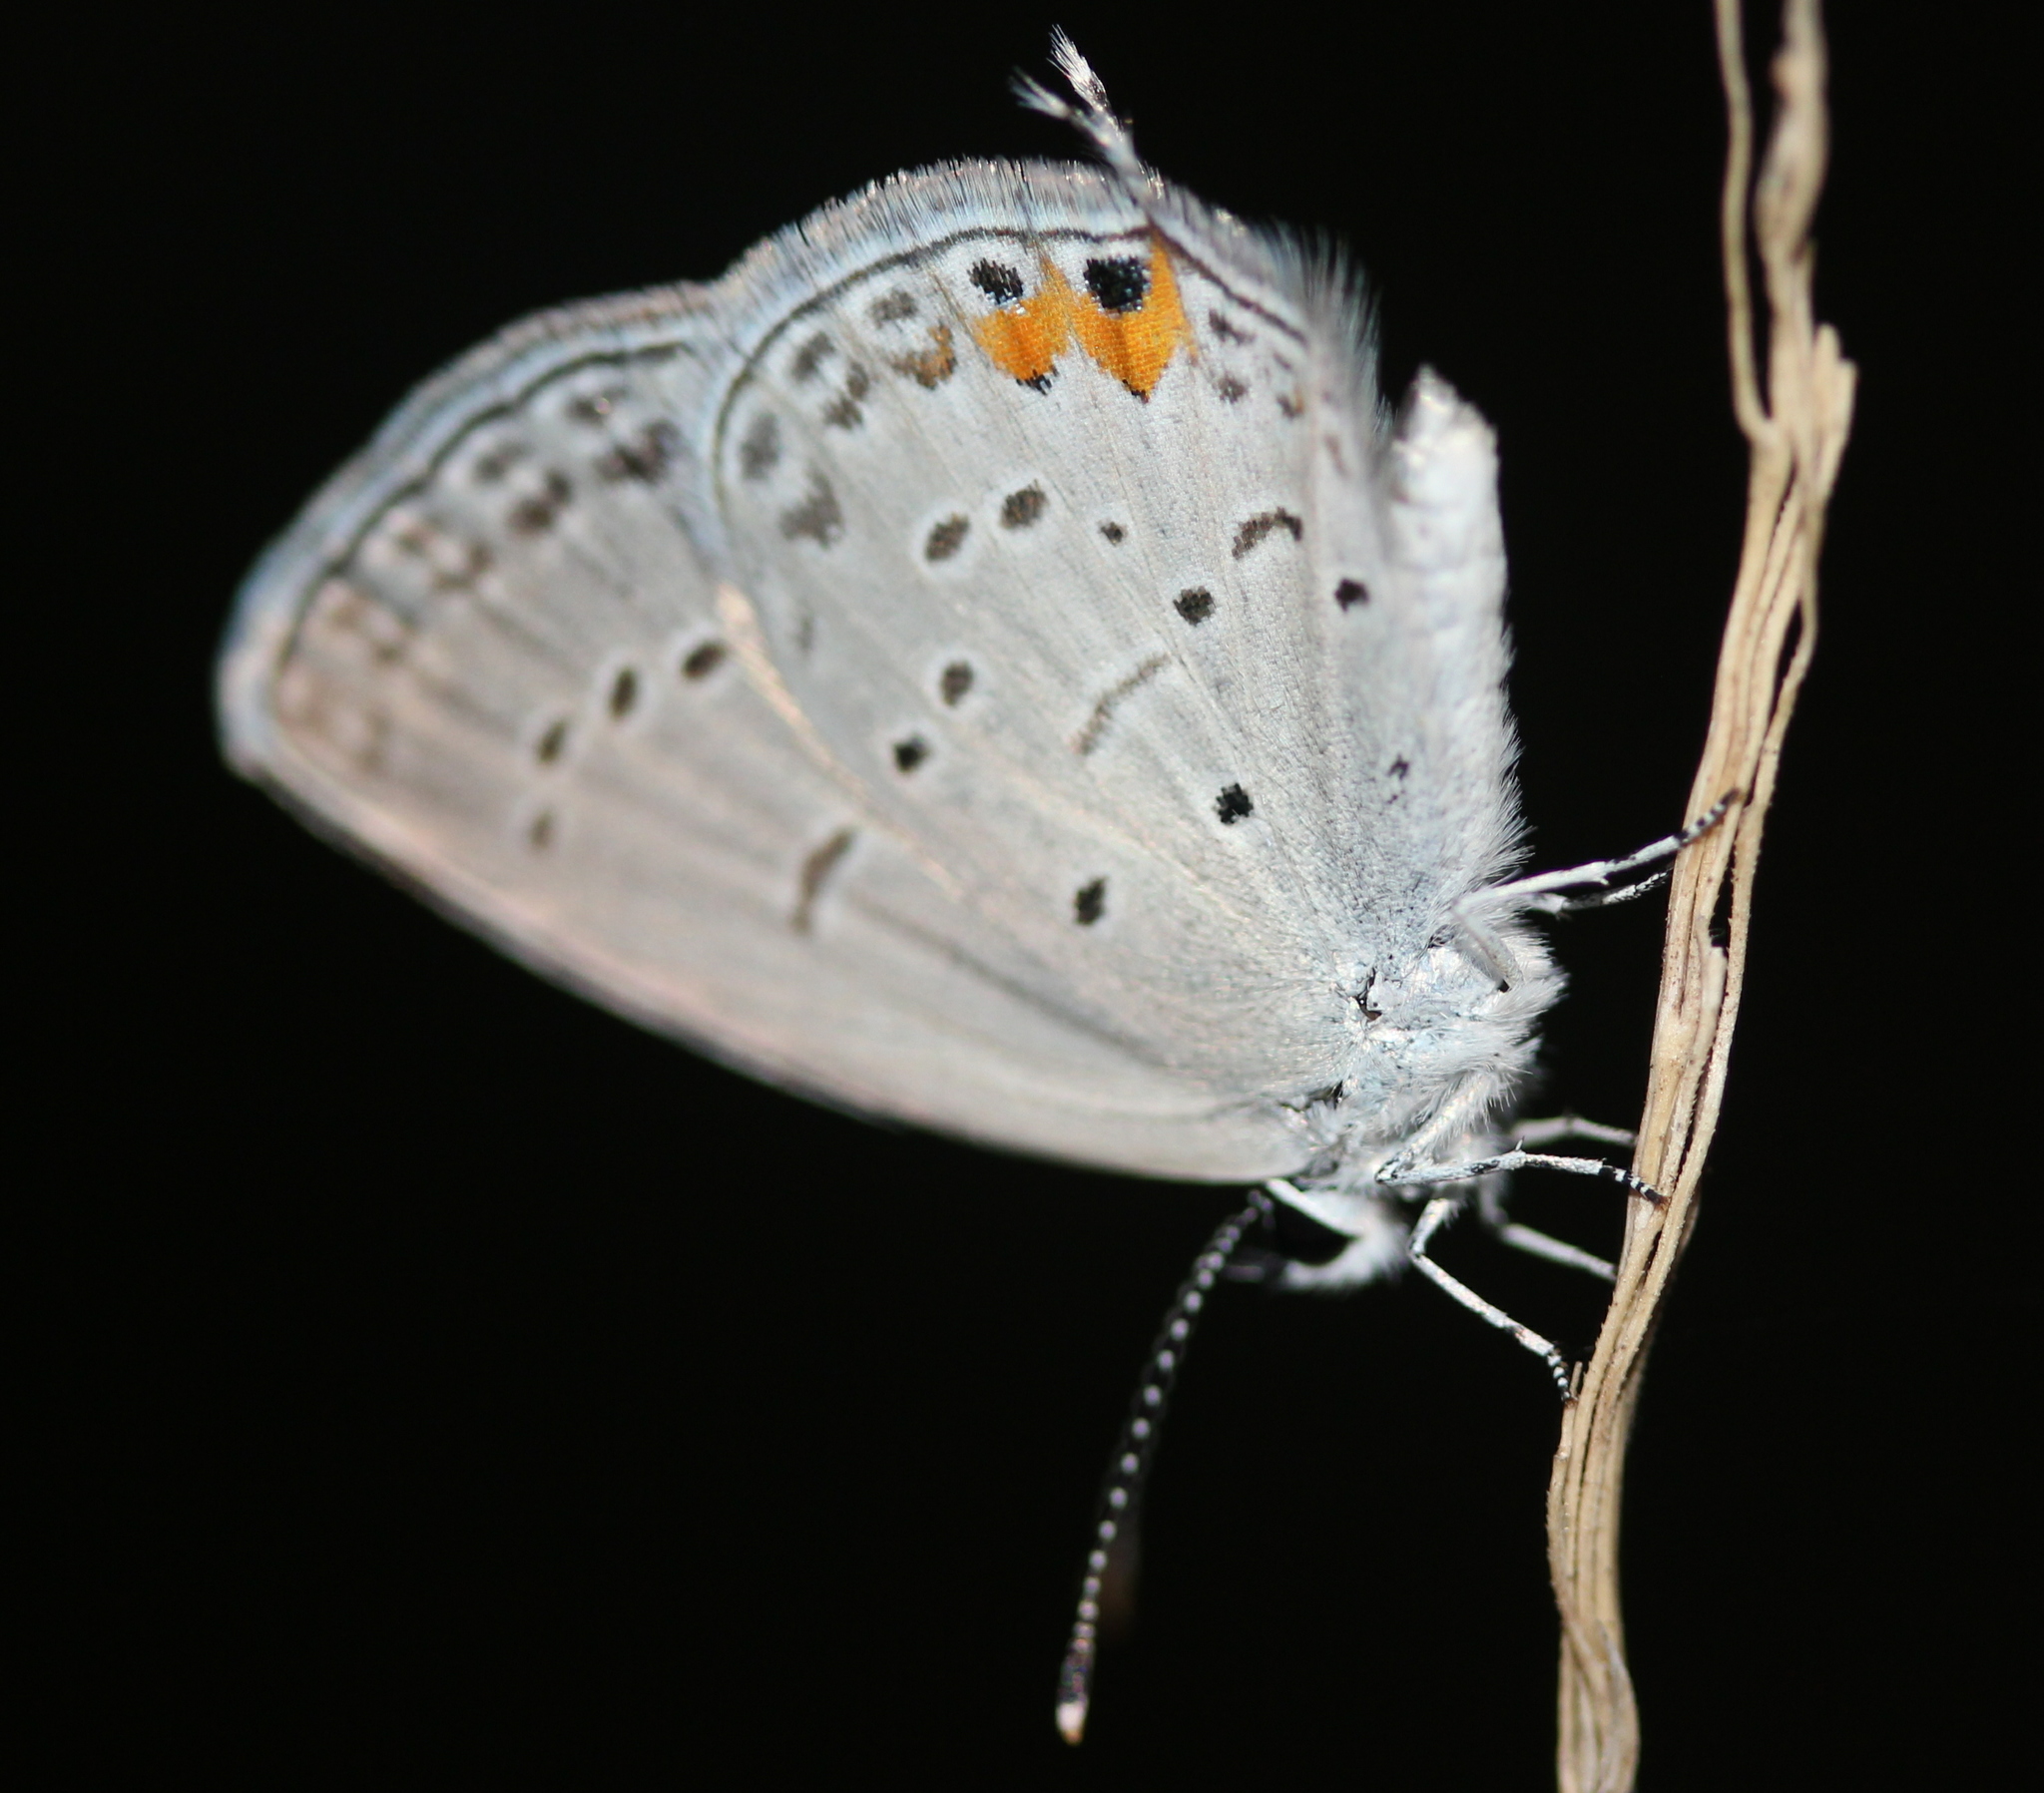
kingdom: Animalia
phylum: Arthropoda
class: Insecta
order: Lepidoptera
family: Lycaenidae
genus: Elkalyce
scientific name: Elkalyce comyntas
